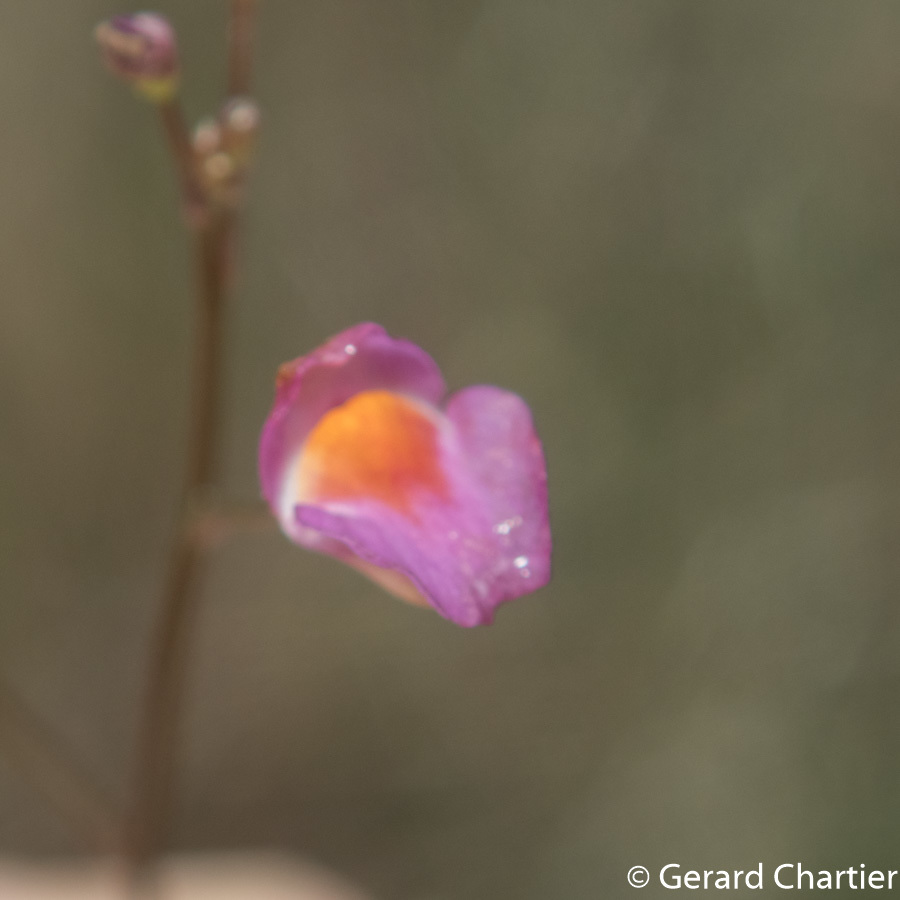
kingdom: Plantae
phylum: Tracheophyta
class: Magnoliopsida
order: Lamiales
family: Lentibulariaceae
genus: Utricularia
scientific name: Utricularia punctata
